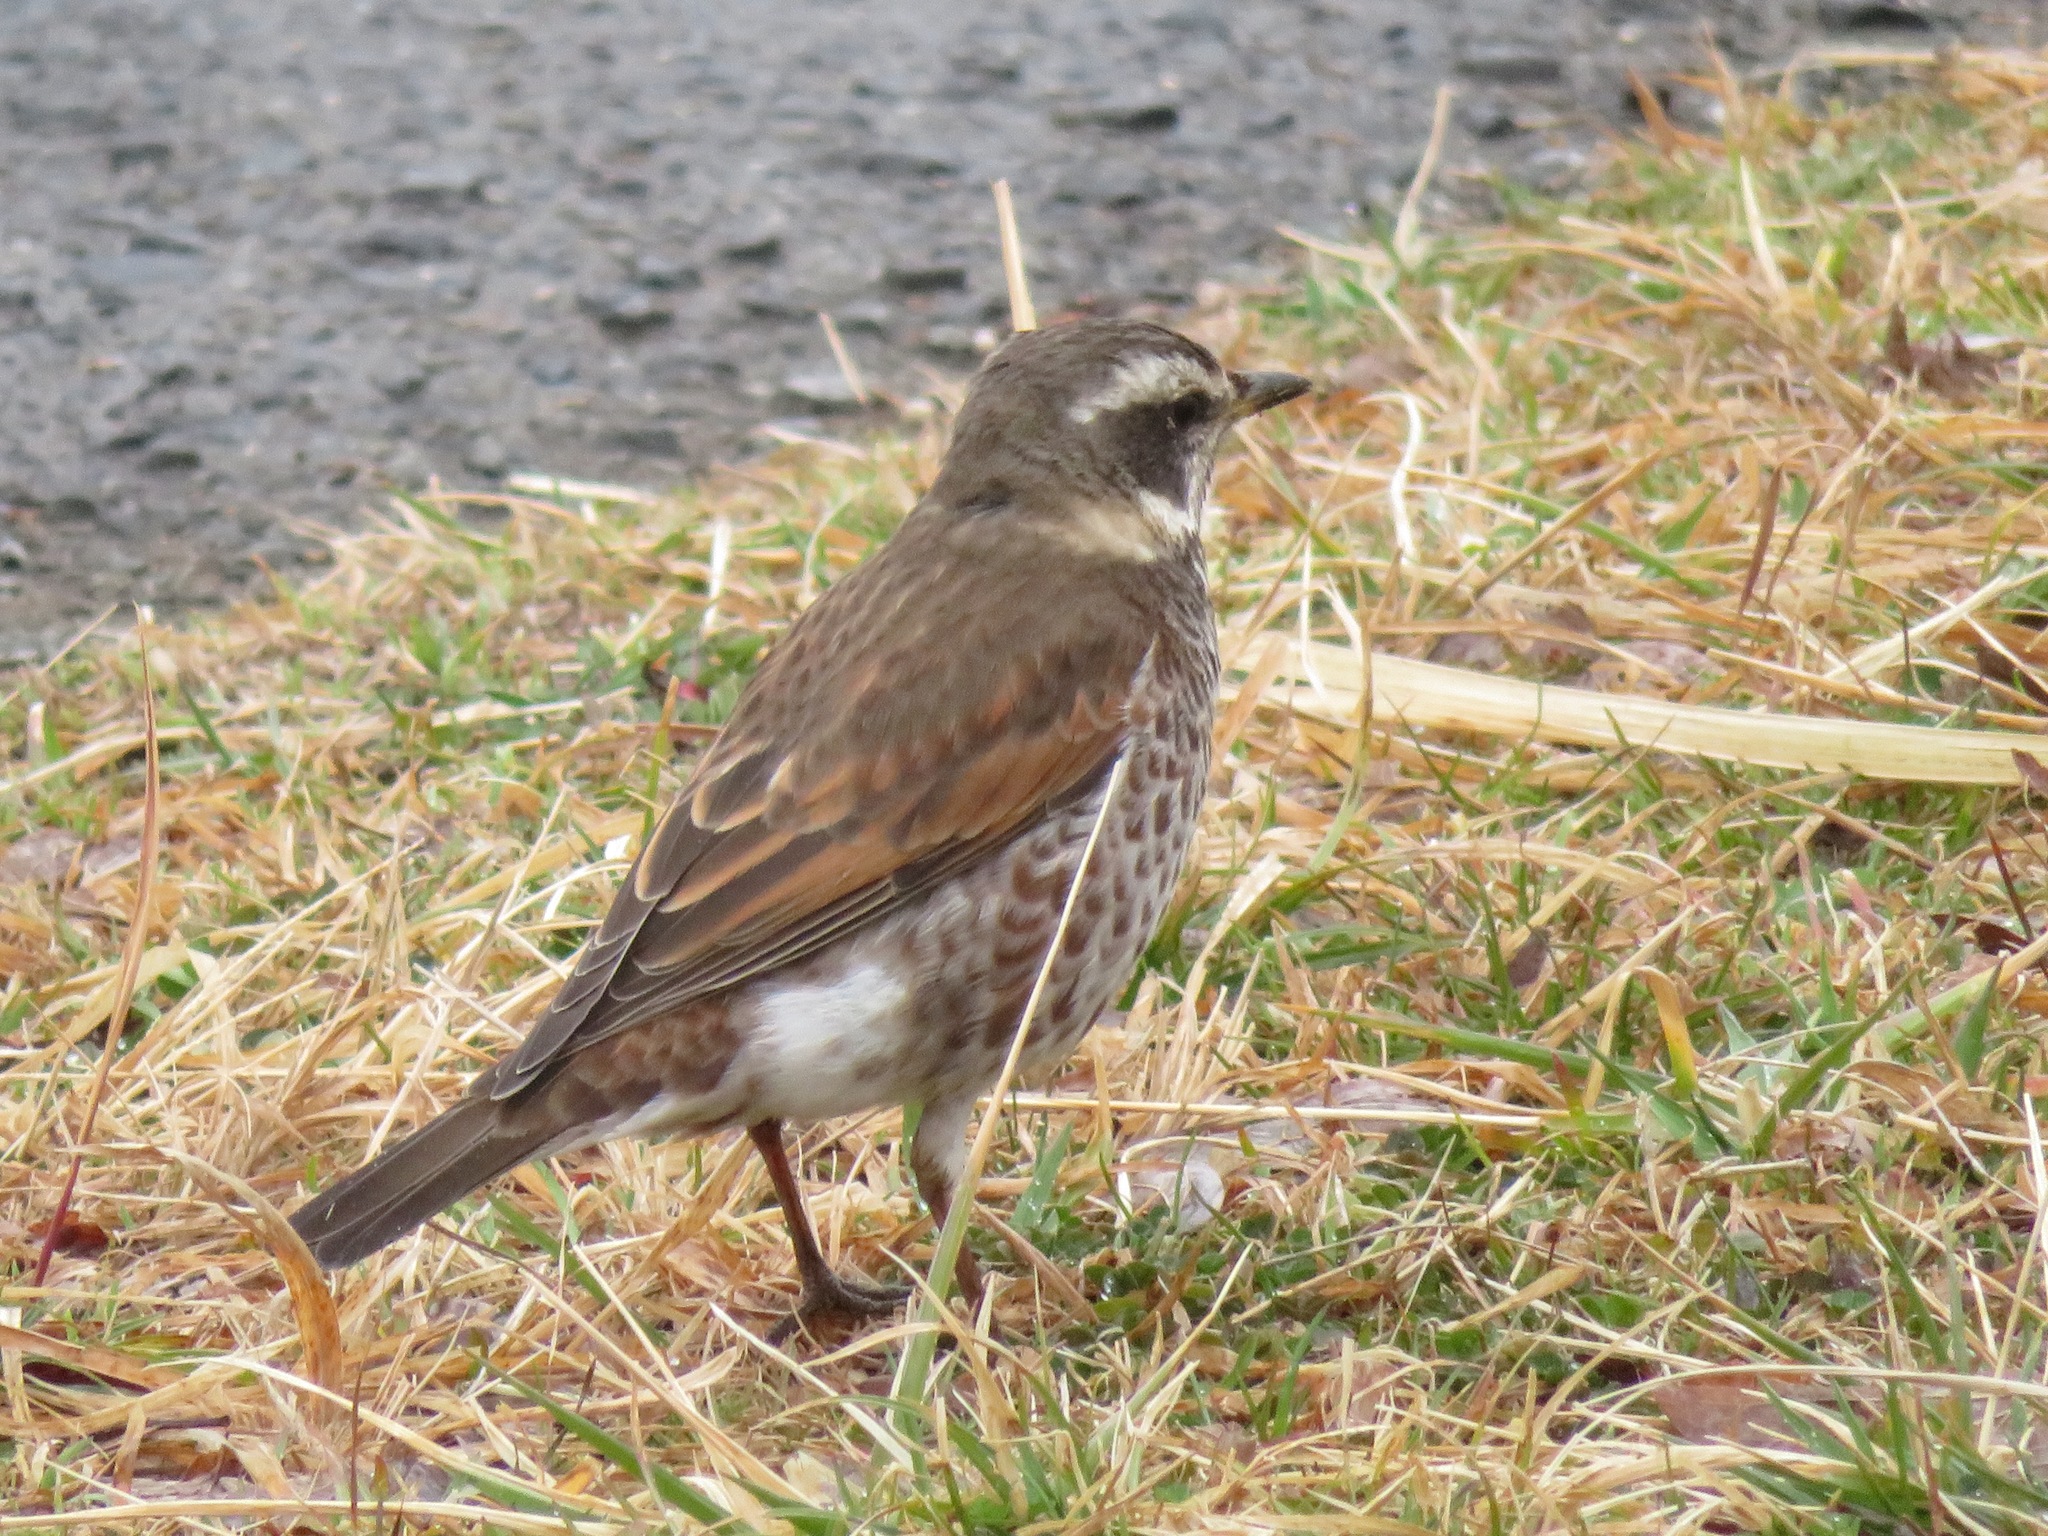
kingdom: Animalia
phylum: Chordata
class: Aves
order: Passeriformes
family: Turdidae
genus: Turdus
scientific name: Turdus eunomus
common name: Dusky thrush
